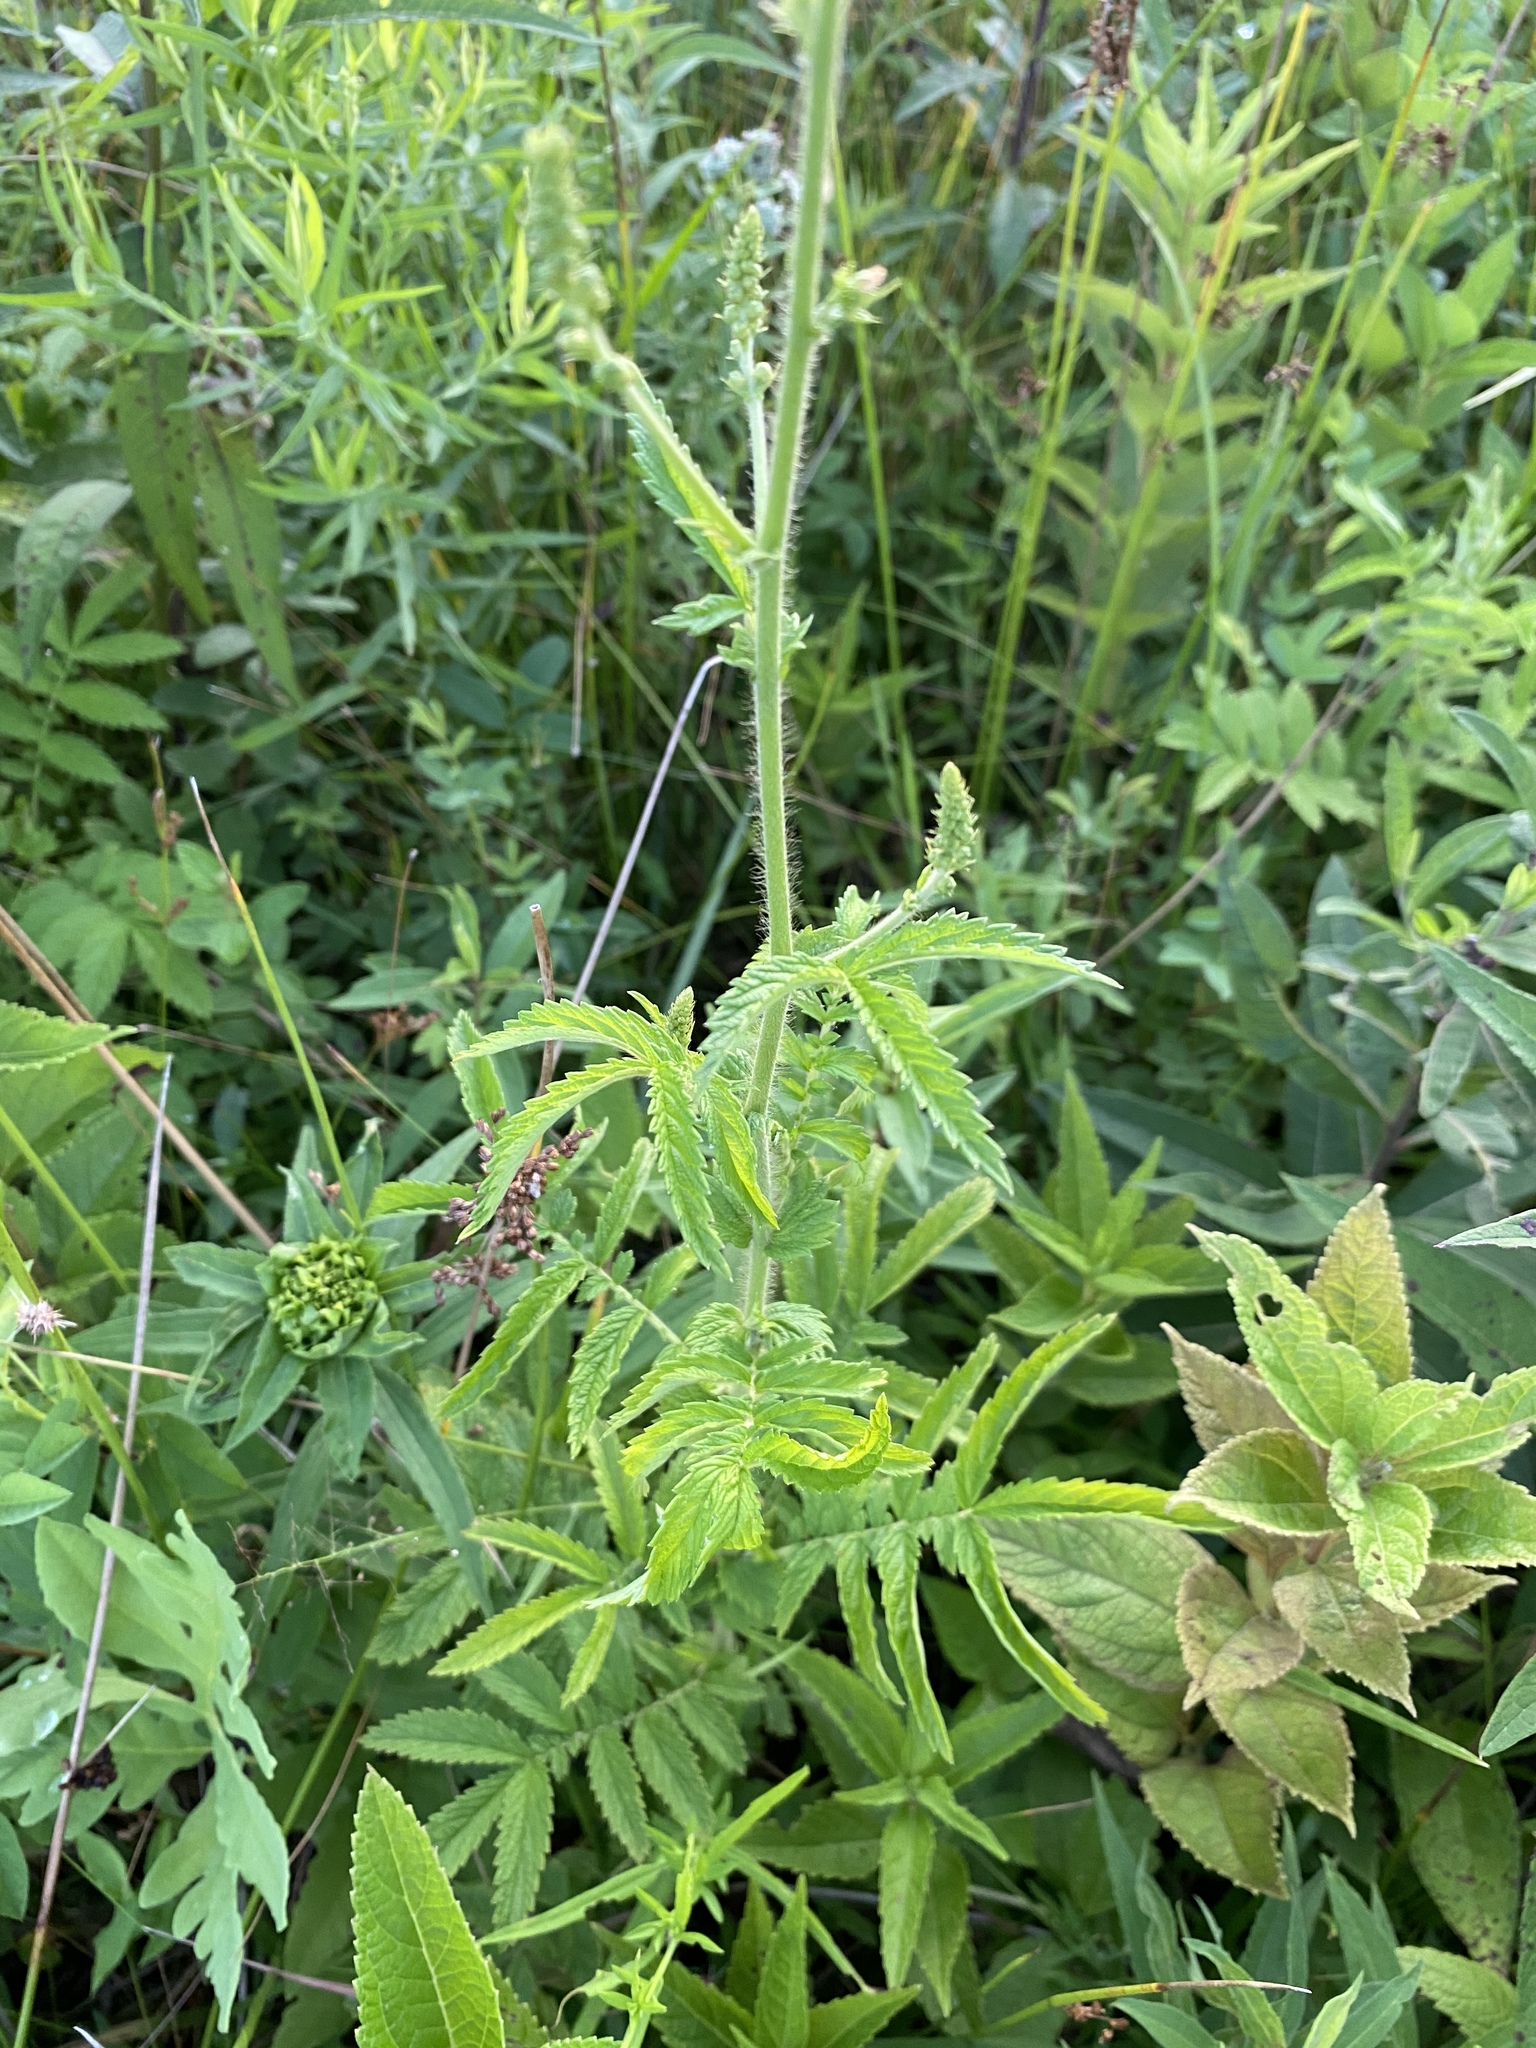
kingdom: Plantae
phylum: Tracheophyta
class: Magnoliopsida
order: Rosales
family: Rosaceae
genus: Agrimonia
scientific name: Agrimonia parviflora
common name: Harvest-lice
